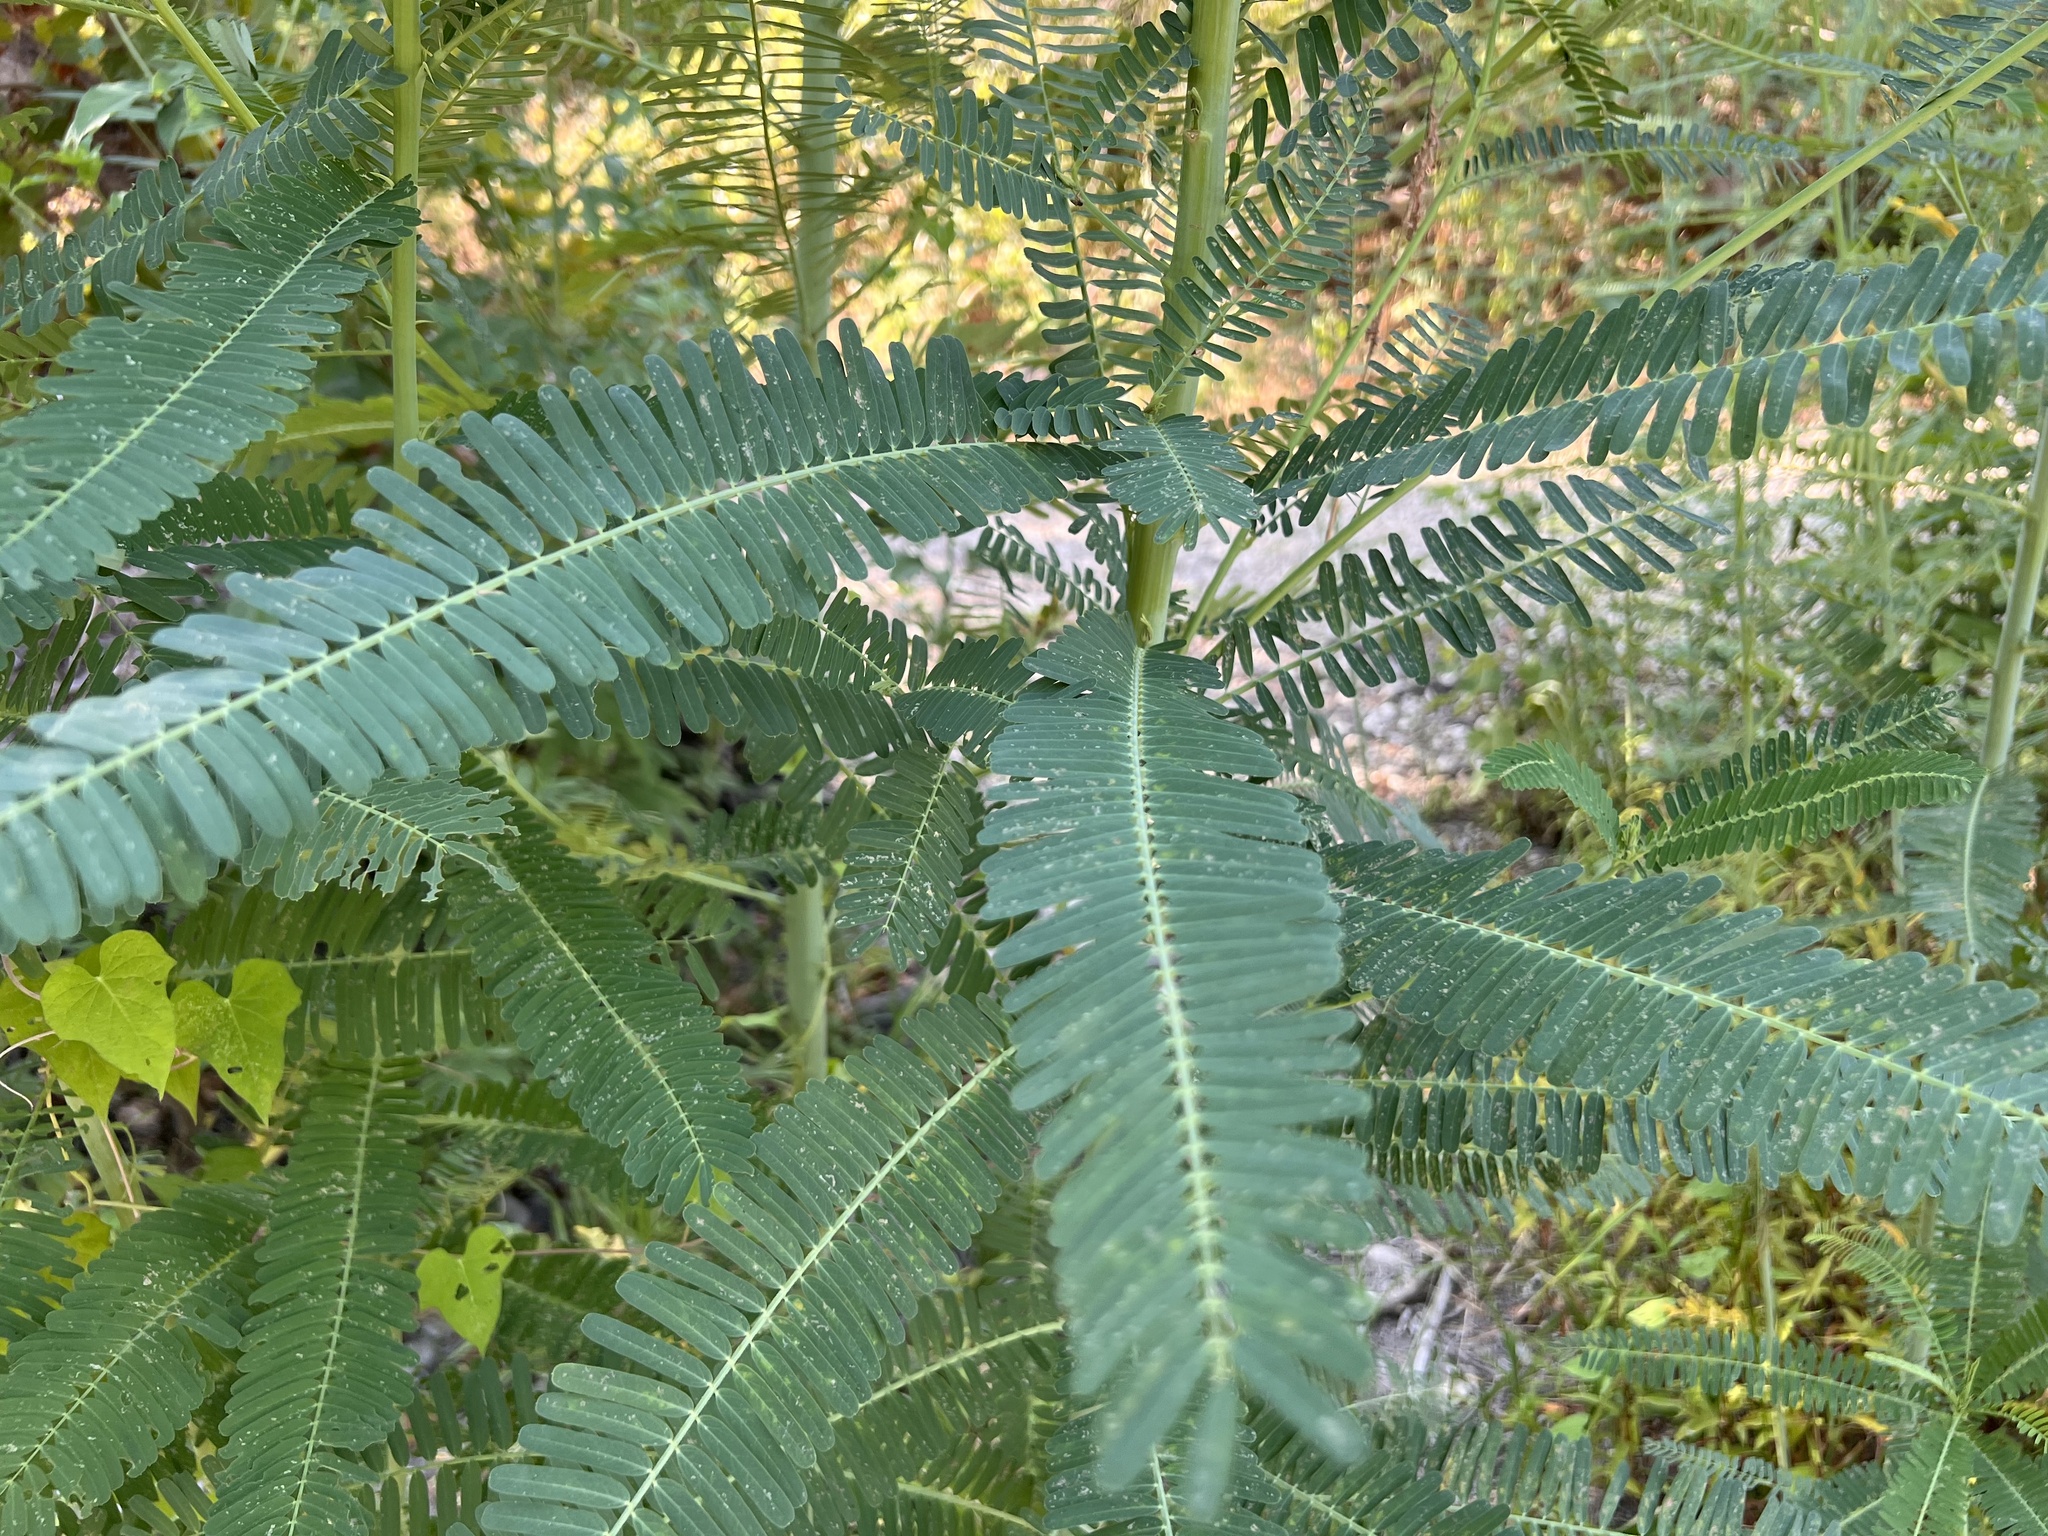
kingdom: Plantae
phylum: Tracheophyta
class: Magnoliopsida
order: Fabales
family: Fabaceae
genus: Sesbania
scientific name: Sesbania herbacea
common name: Bigpod sesbania
